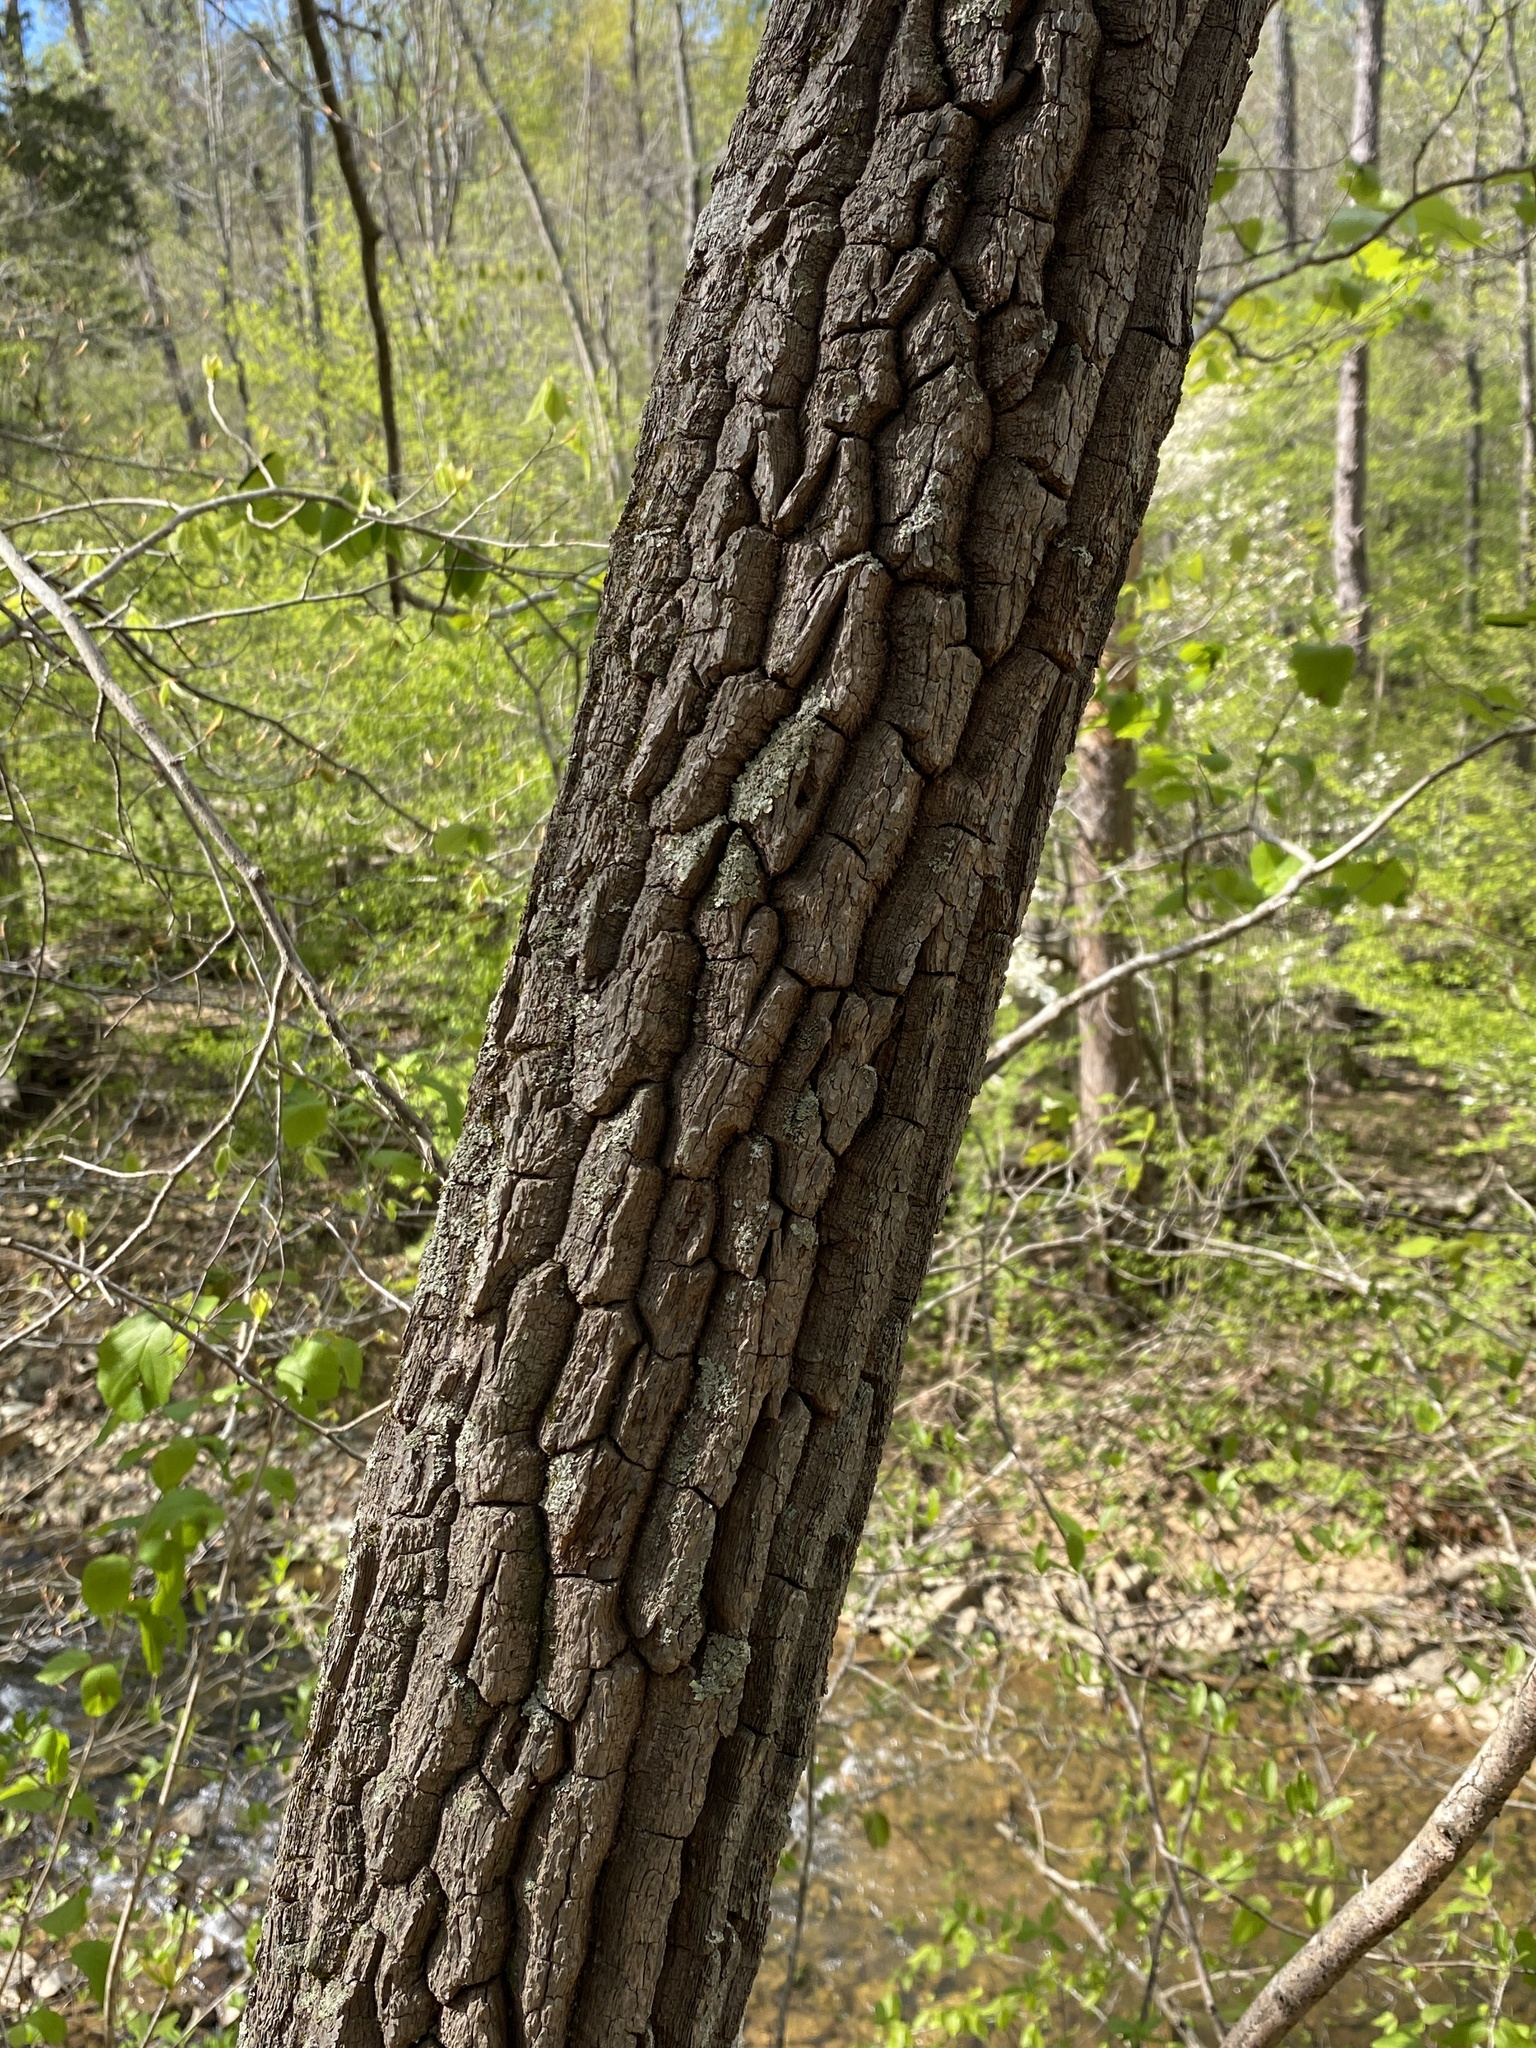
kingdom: Plantae
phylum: Tracheophyta
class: Magnoliopsida
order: Ericales
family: Ericaceae
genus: Oxydendrum
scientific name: Oxydendrum arboreum
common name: Sourwood
